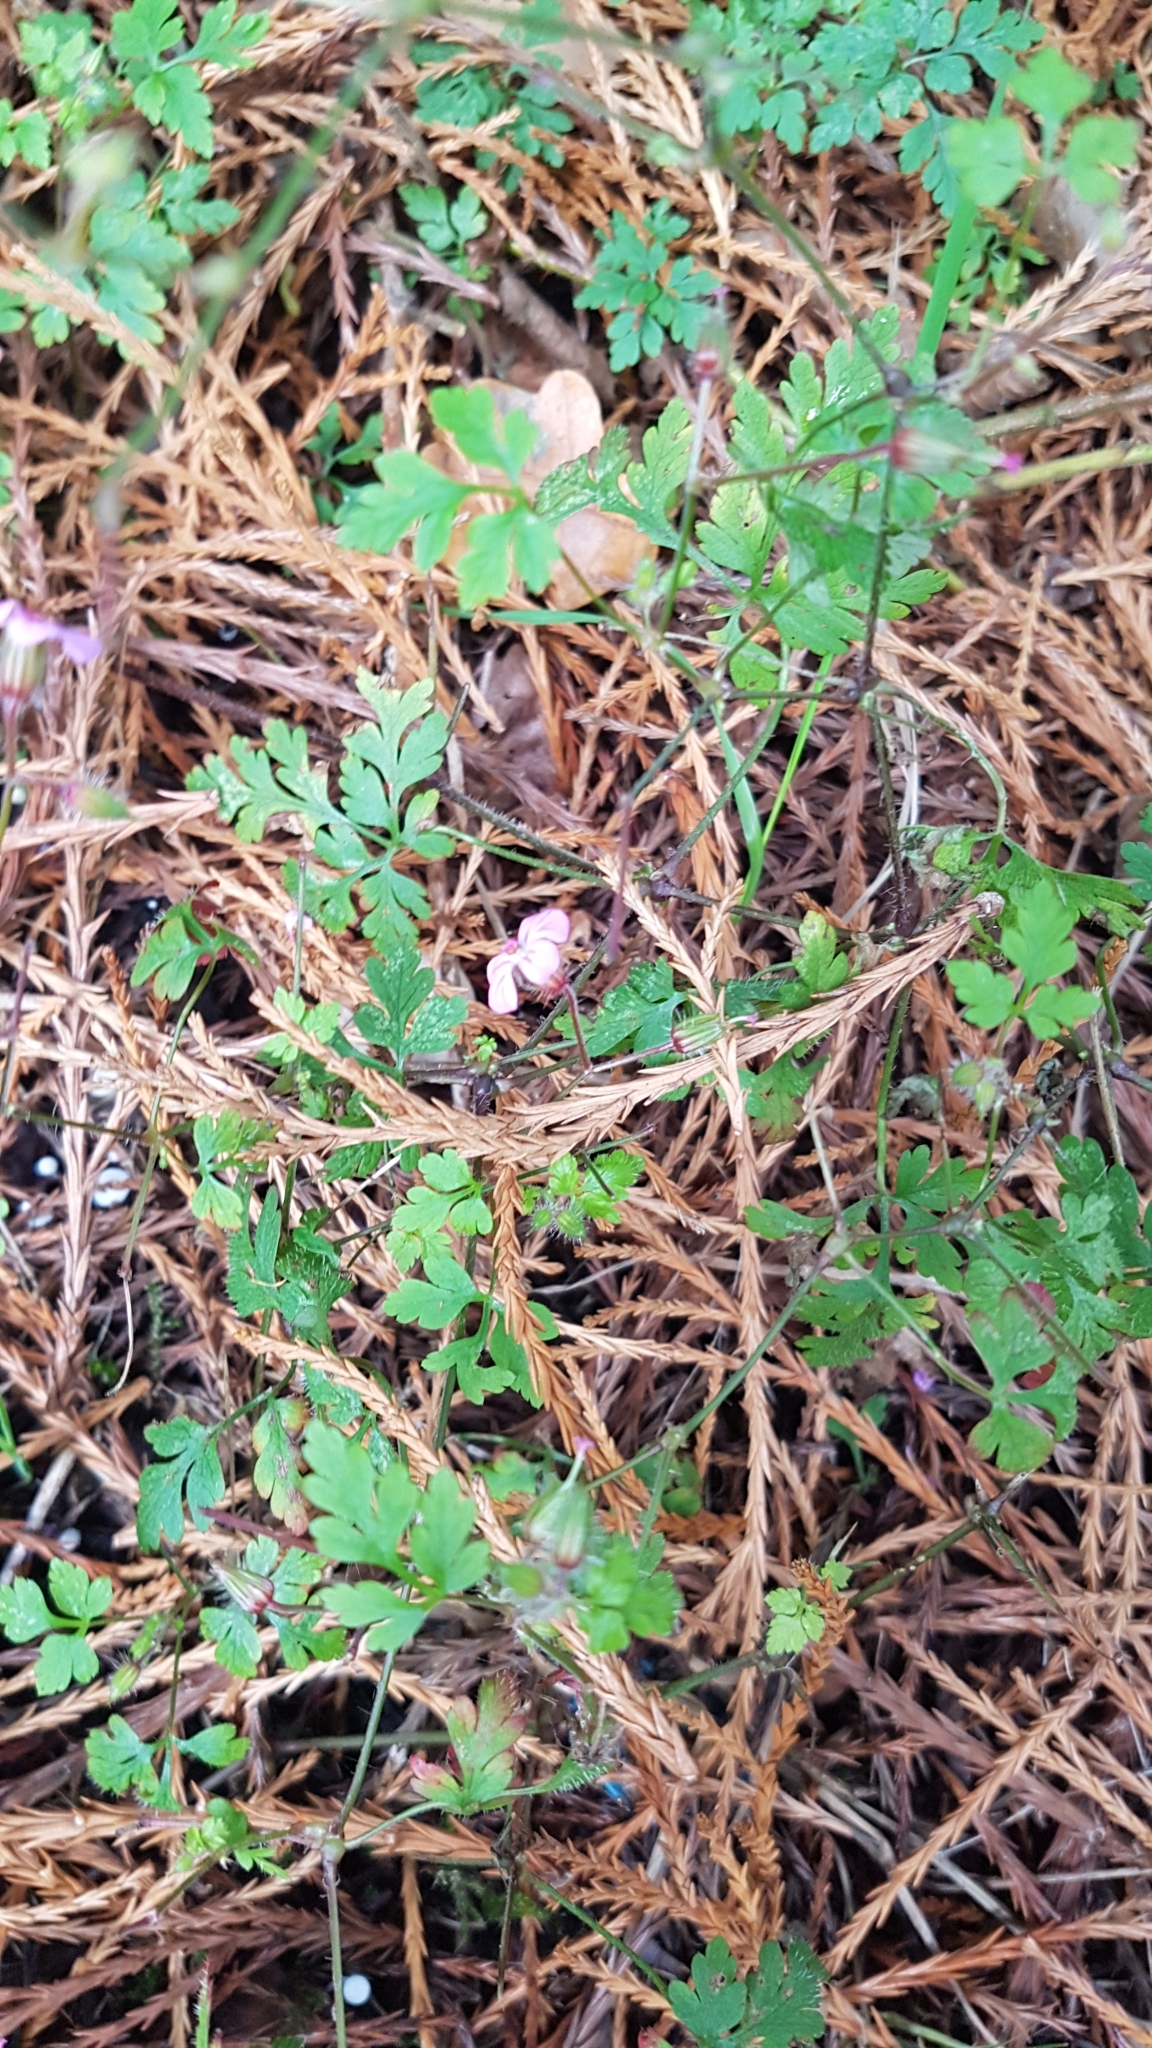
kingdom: Plantae
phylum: Tracheophyta
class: Magnoliopsida
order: Geraniales
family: Geraniaceae
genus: Geranium
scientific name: Geranium robertianum
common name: Herb-robert
